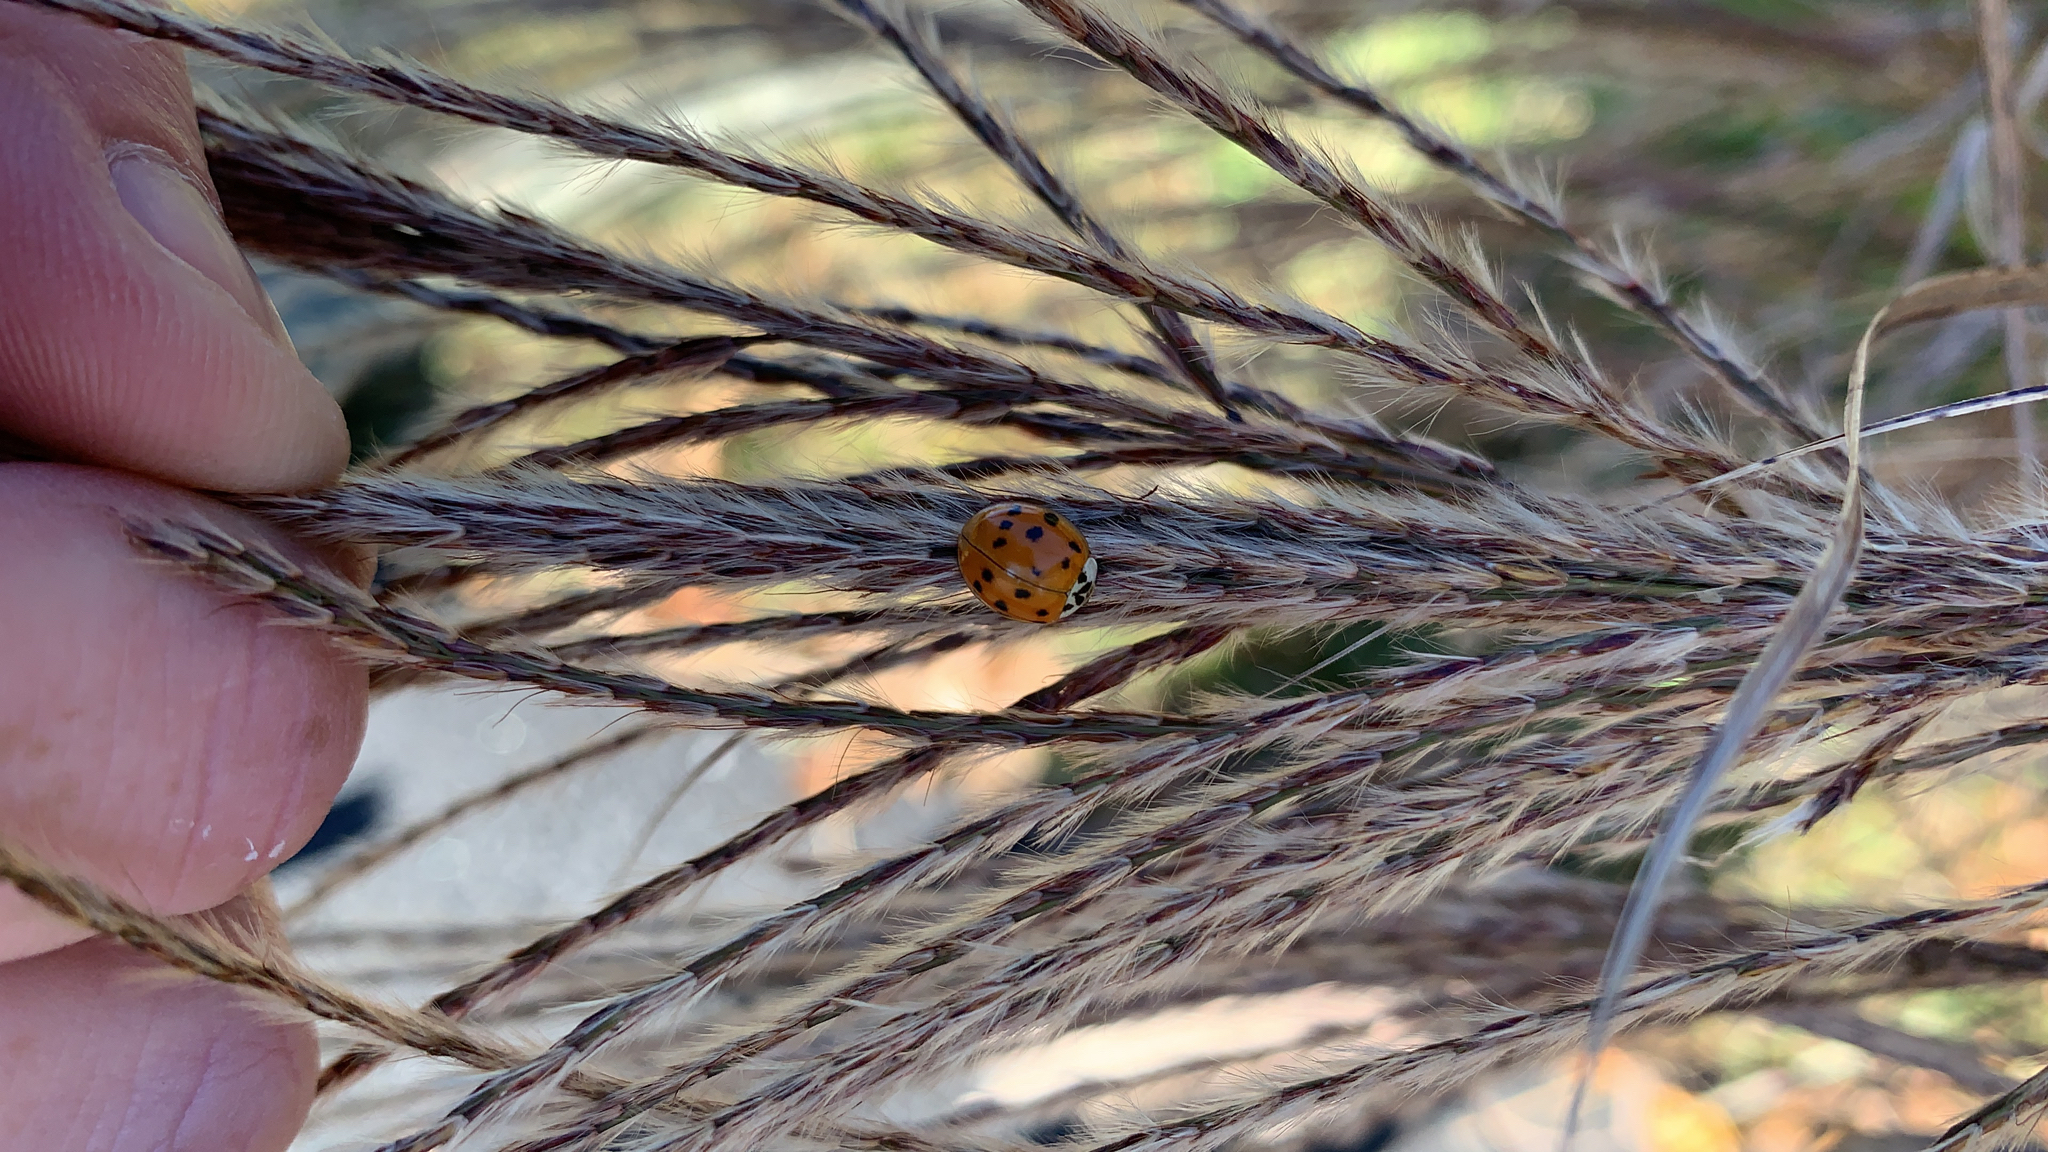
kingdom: Animalia
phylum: Arthropoda
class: Insecta
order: Coleoptera
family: Coccinellidae
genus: Harmonia
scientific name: Harmonia axyridis
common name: Harlequin ladybird
